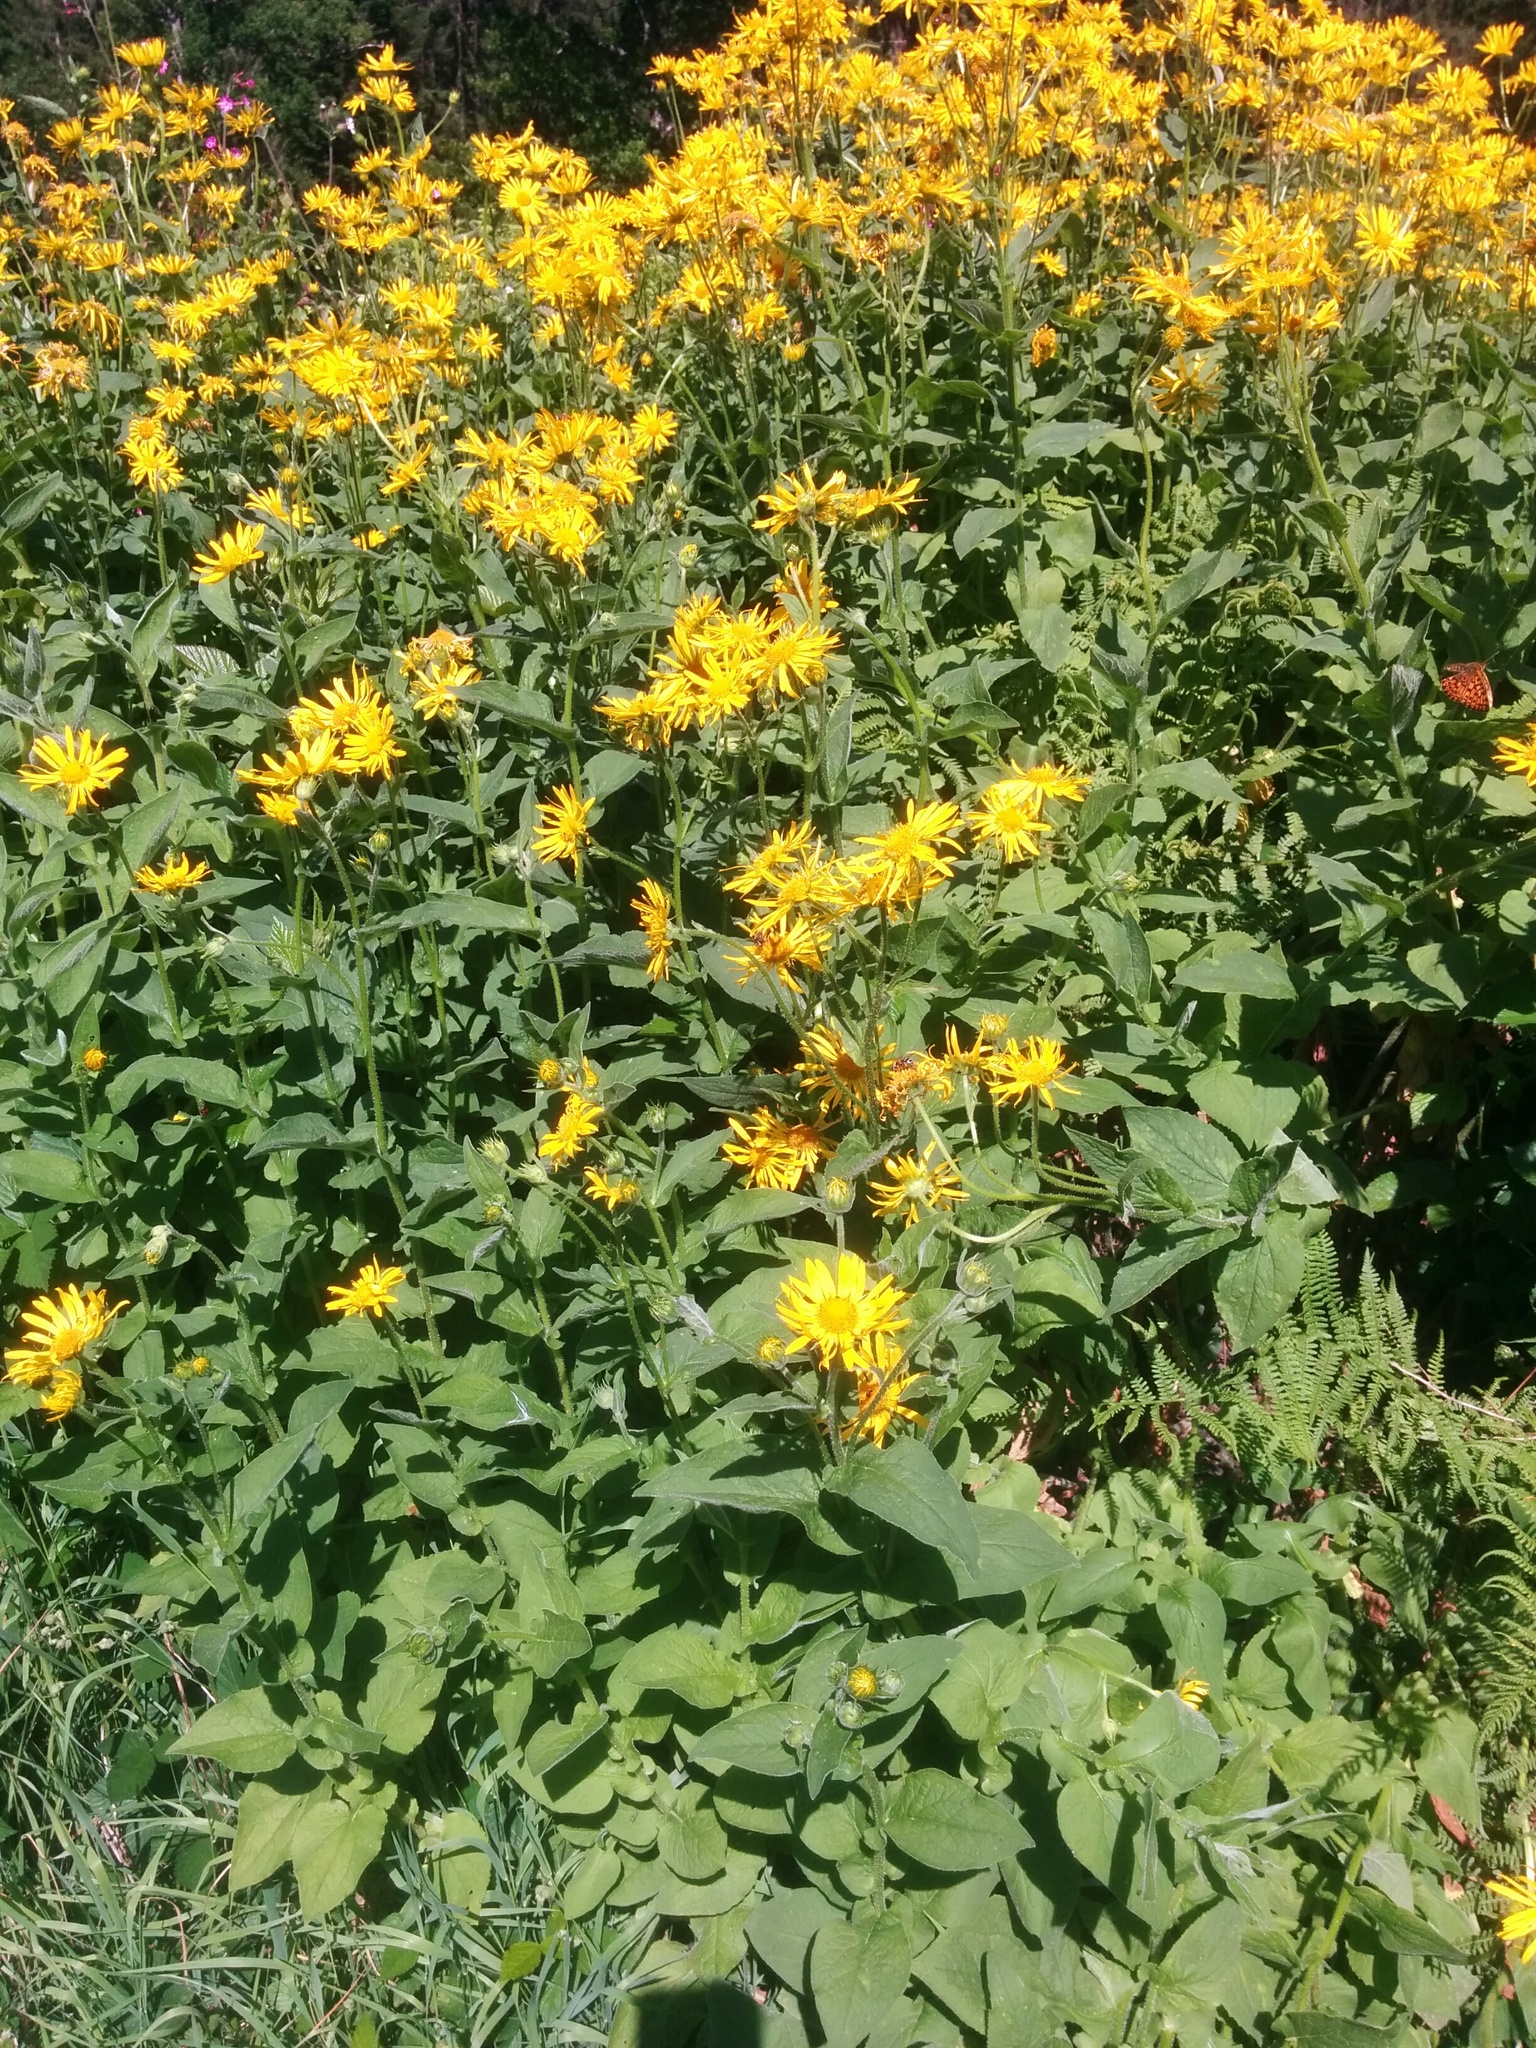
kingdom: Plantae
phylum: Tracheophyta
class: Magnoliopsida
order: Asterales
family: Asteraceae
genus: Doronicum
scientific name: Doronicum austriacum
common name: Austrian leopard's-bane
